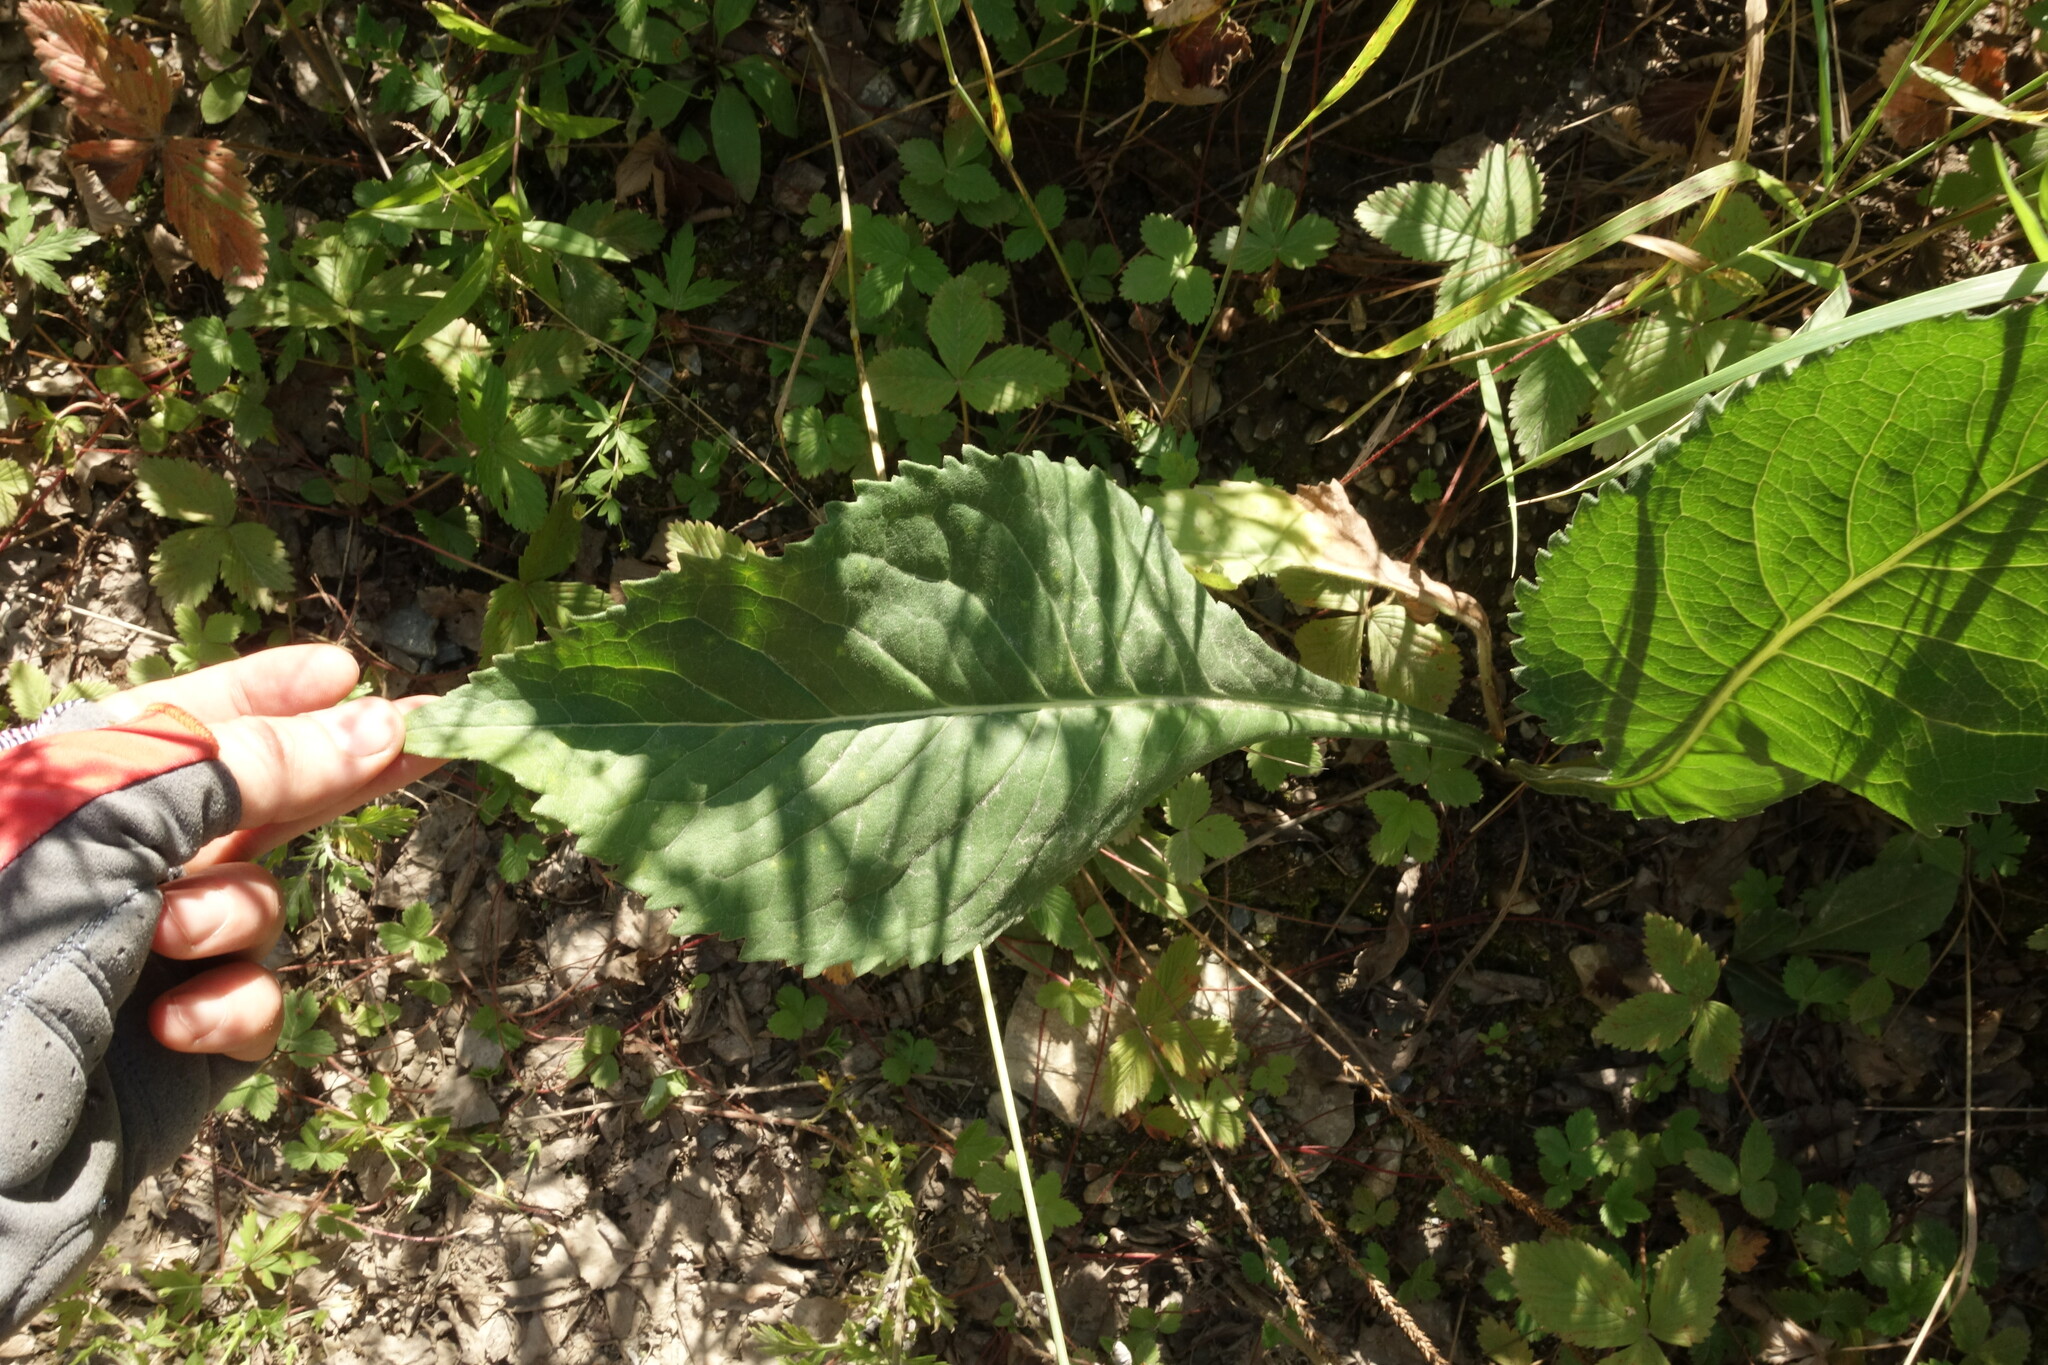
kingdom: Plantae
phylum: Tracheophyta
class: Magnoliopsida
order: Asterales
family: Asteraceae
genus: Aster
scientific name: Aster tataricus
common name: Tatarian aster
